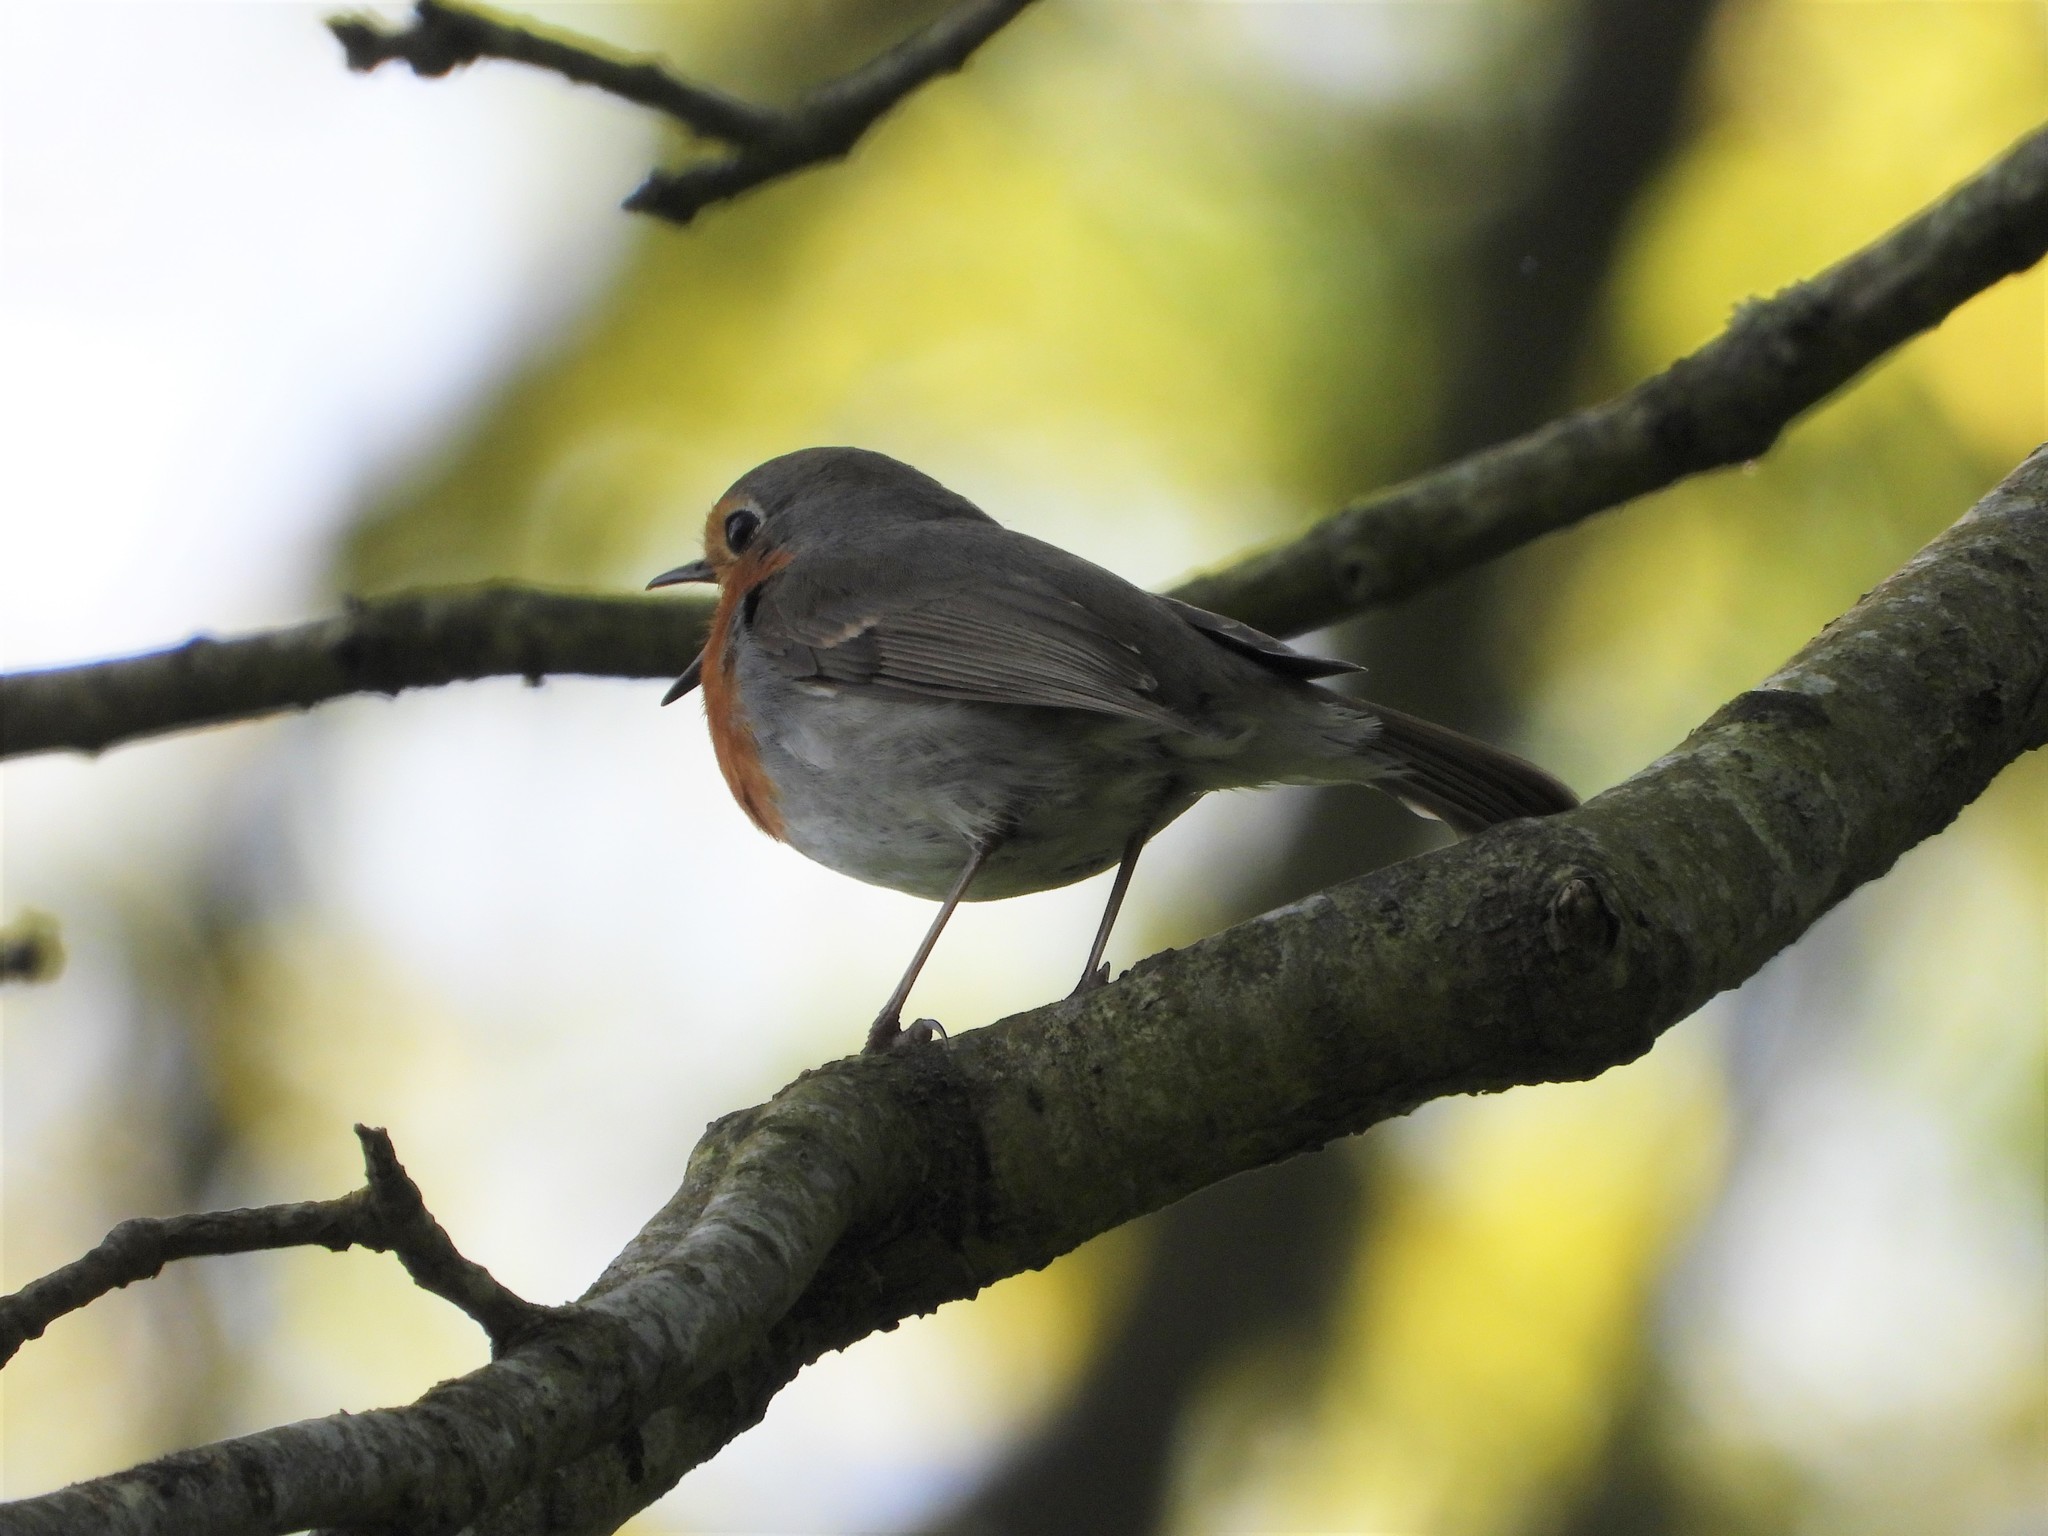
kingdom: Animalia
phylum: Chordata
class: Aves
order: Passeriformes
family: Muscicapidae
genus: Erithacus
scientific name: Erithacus rubecula
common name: European robin
